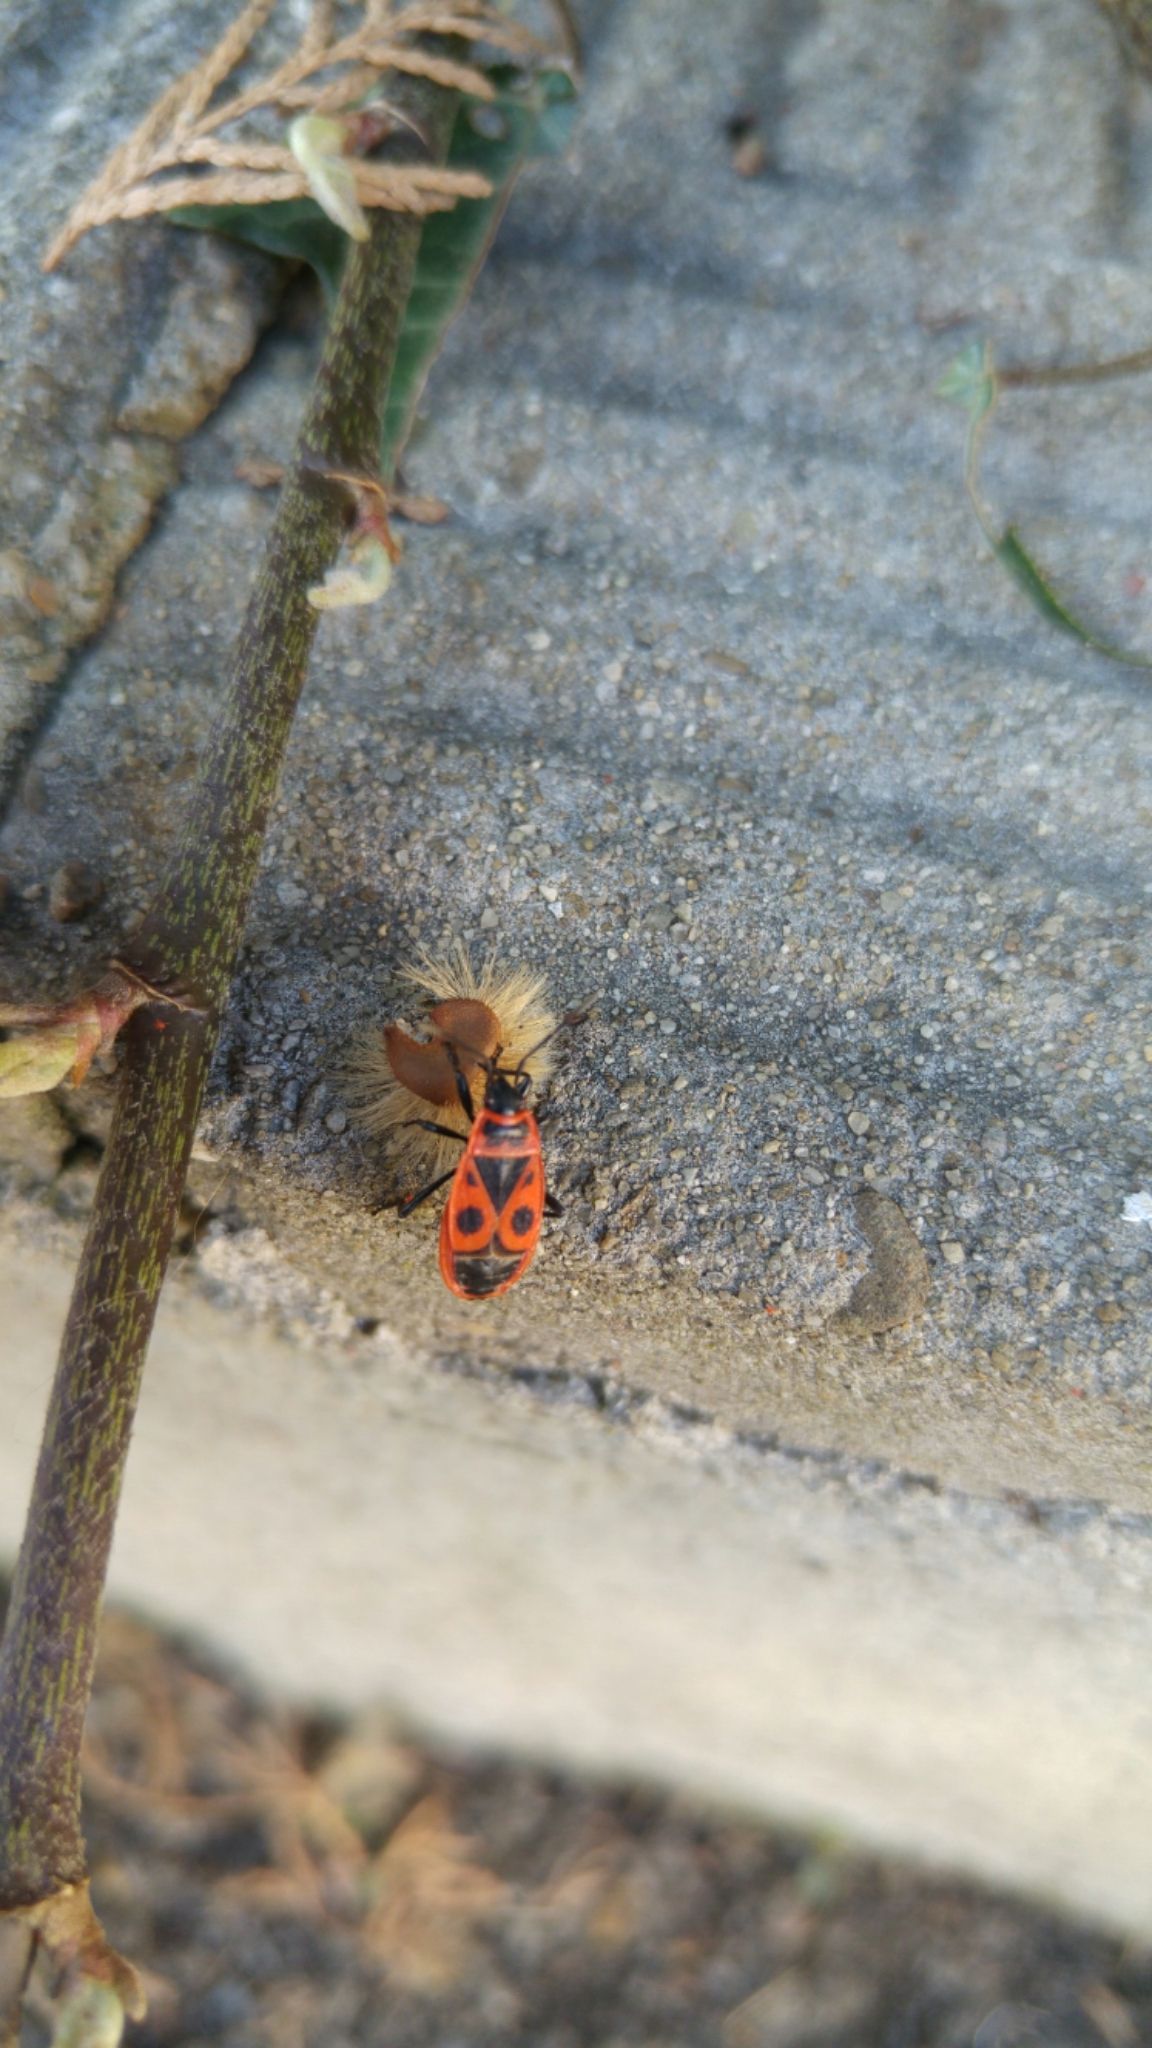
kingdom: Animalia
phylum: Arthropoda
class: Insecta
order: Hemiptera
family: Pyrrhocoridae
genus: Pyrrhocoris
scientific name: Pyrrhocoris apterus
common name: Firebug
